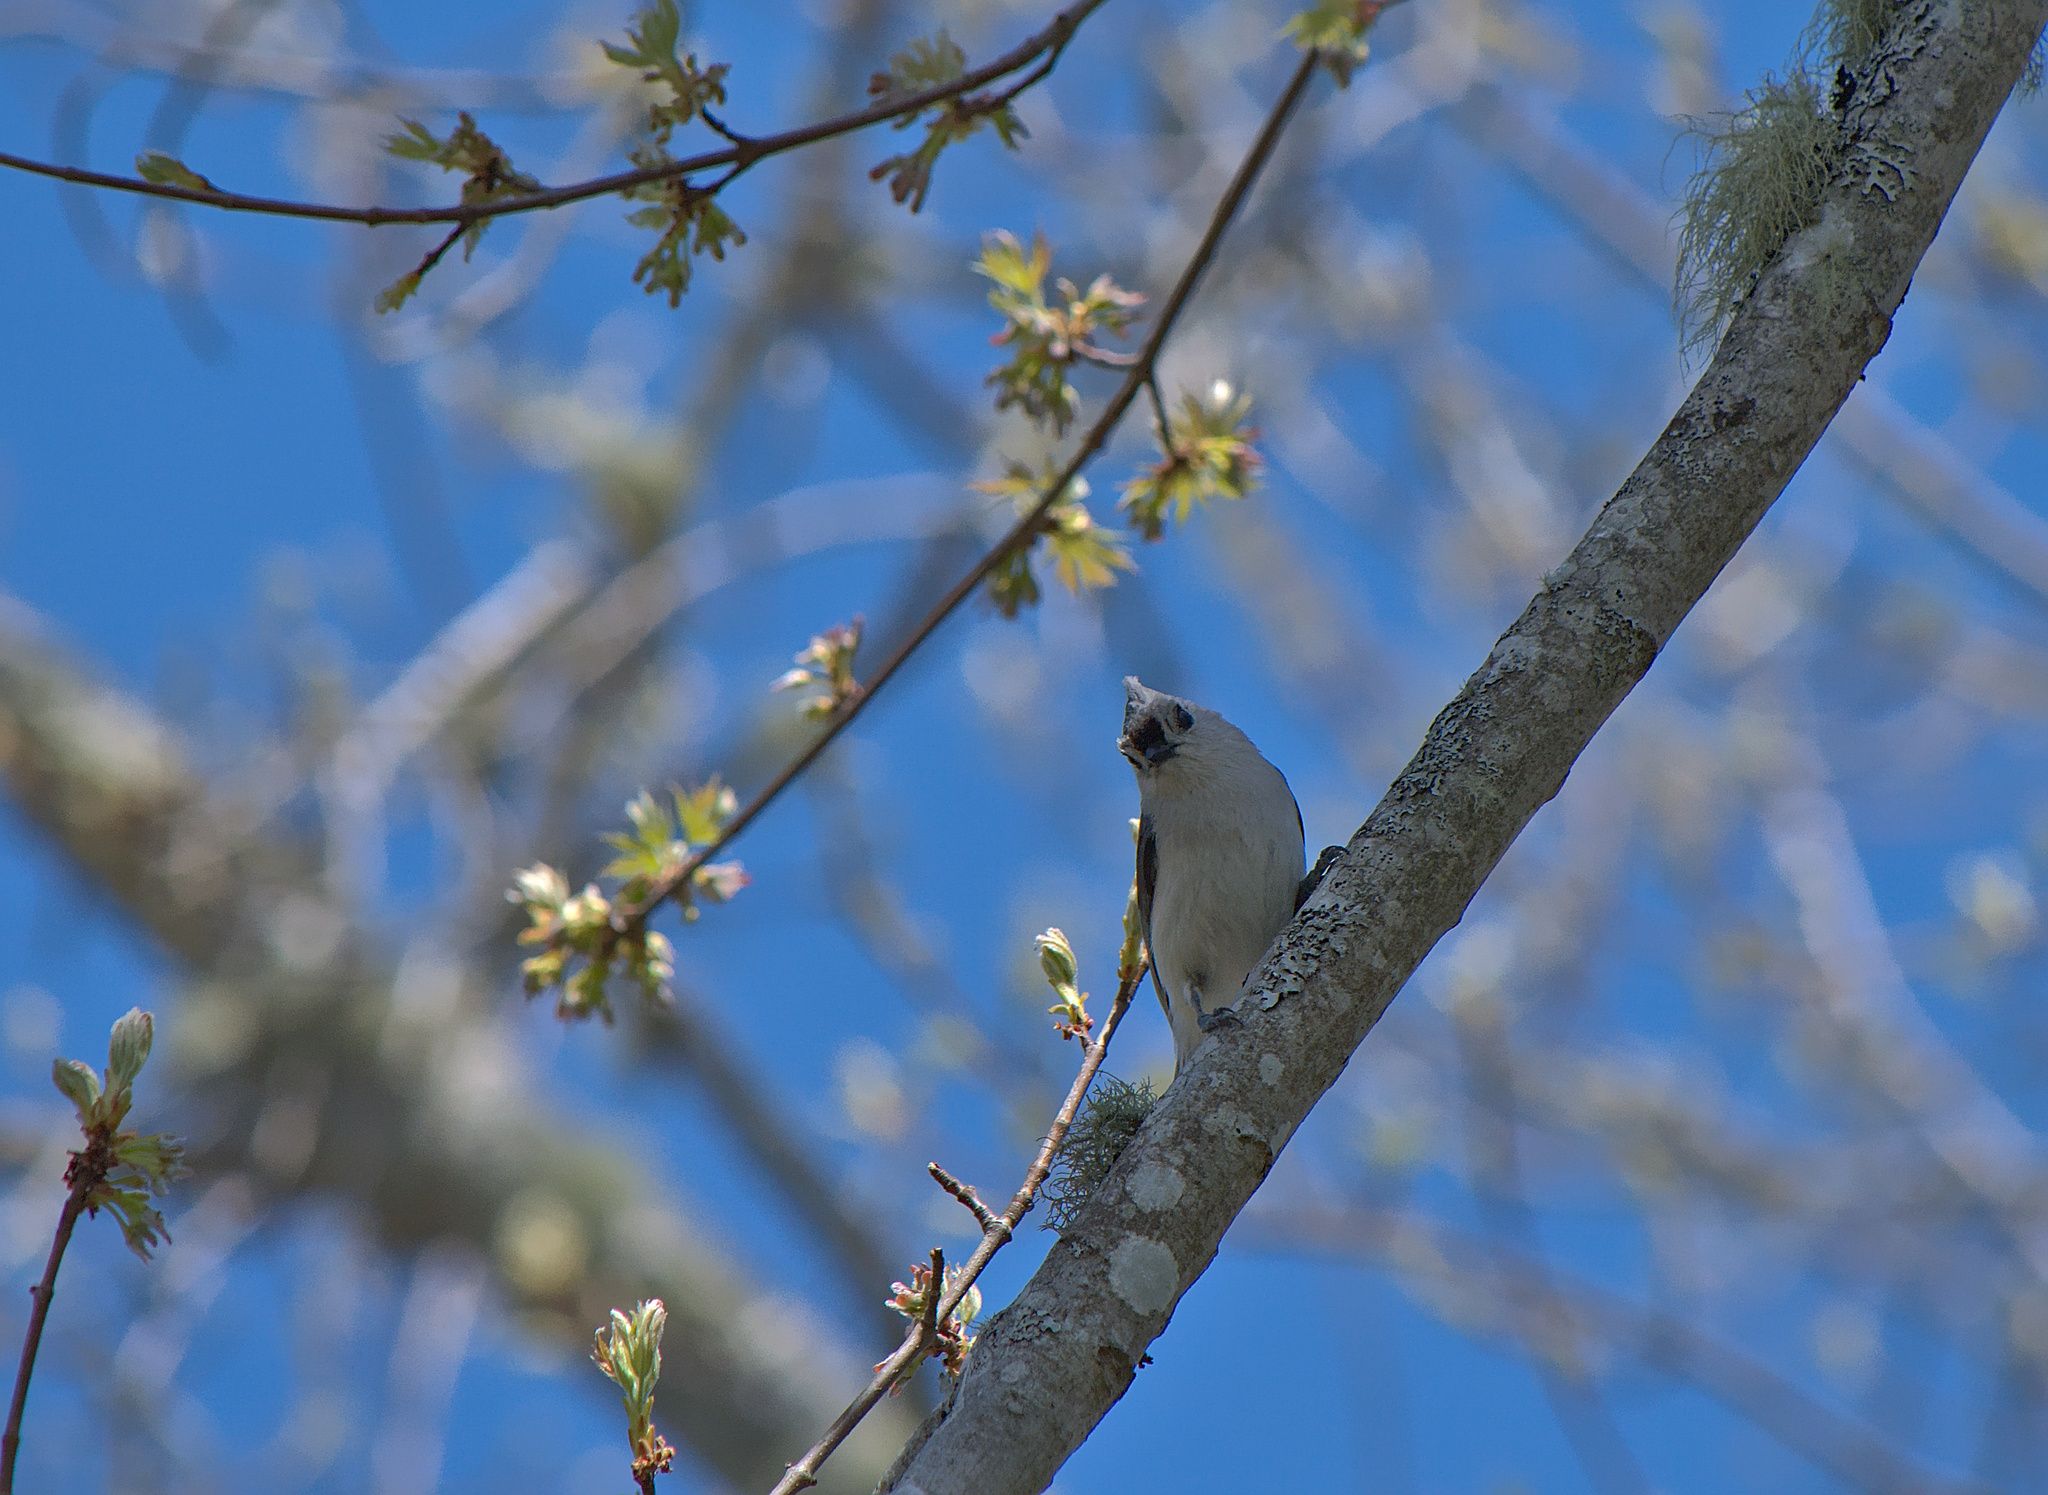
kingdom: Animalia
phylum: Chordata
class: Aves
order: Passeriformes
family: Paridae
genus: Baeolophus
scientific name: Baeolophus bicolor
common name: Tufted titmouse
